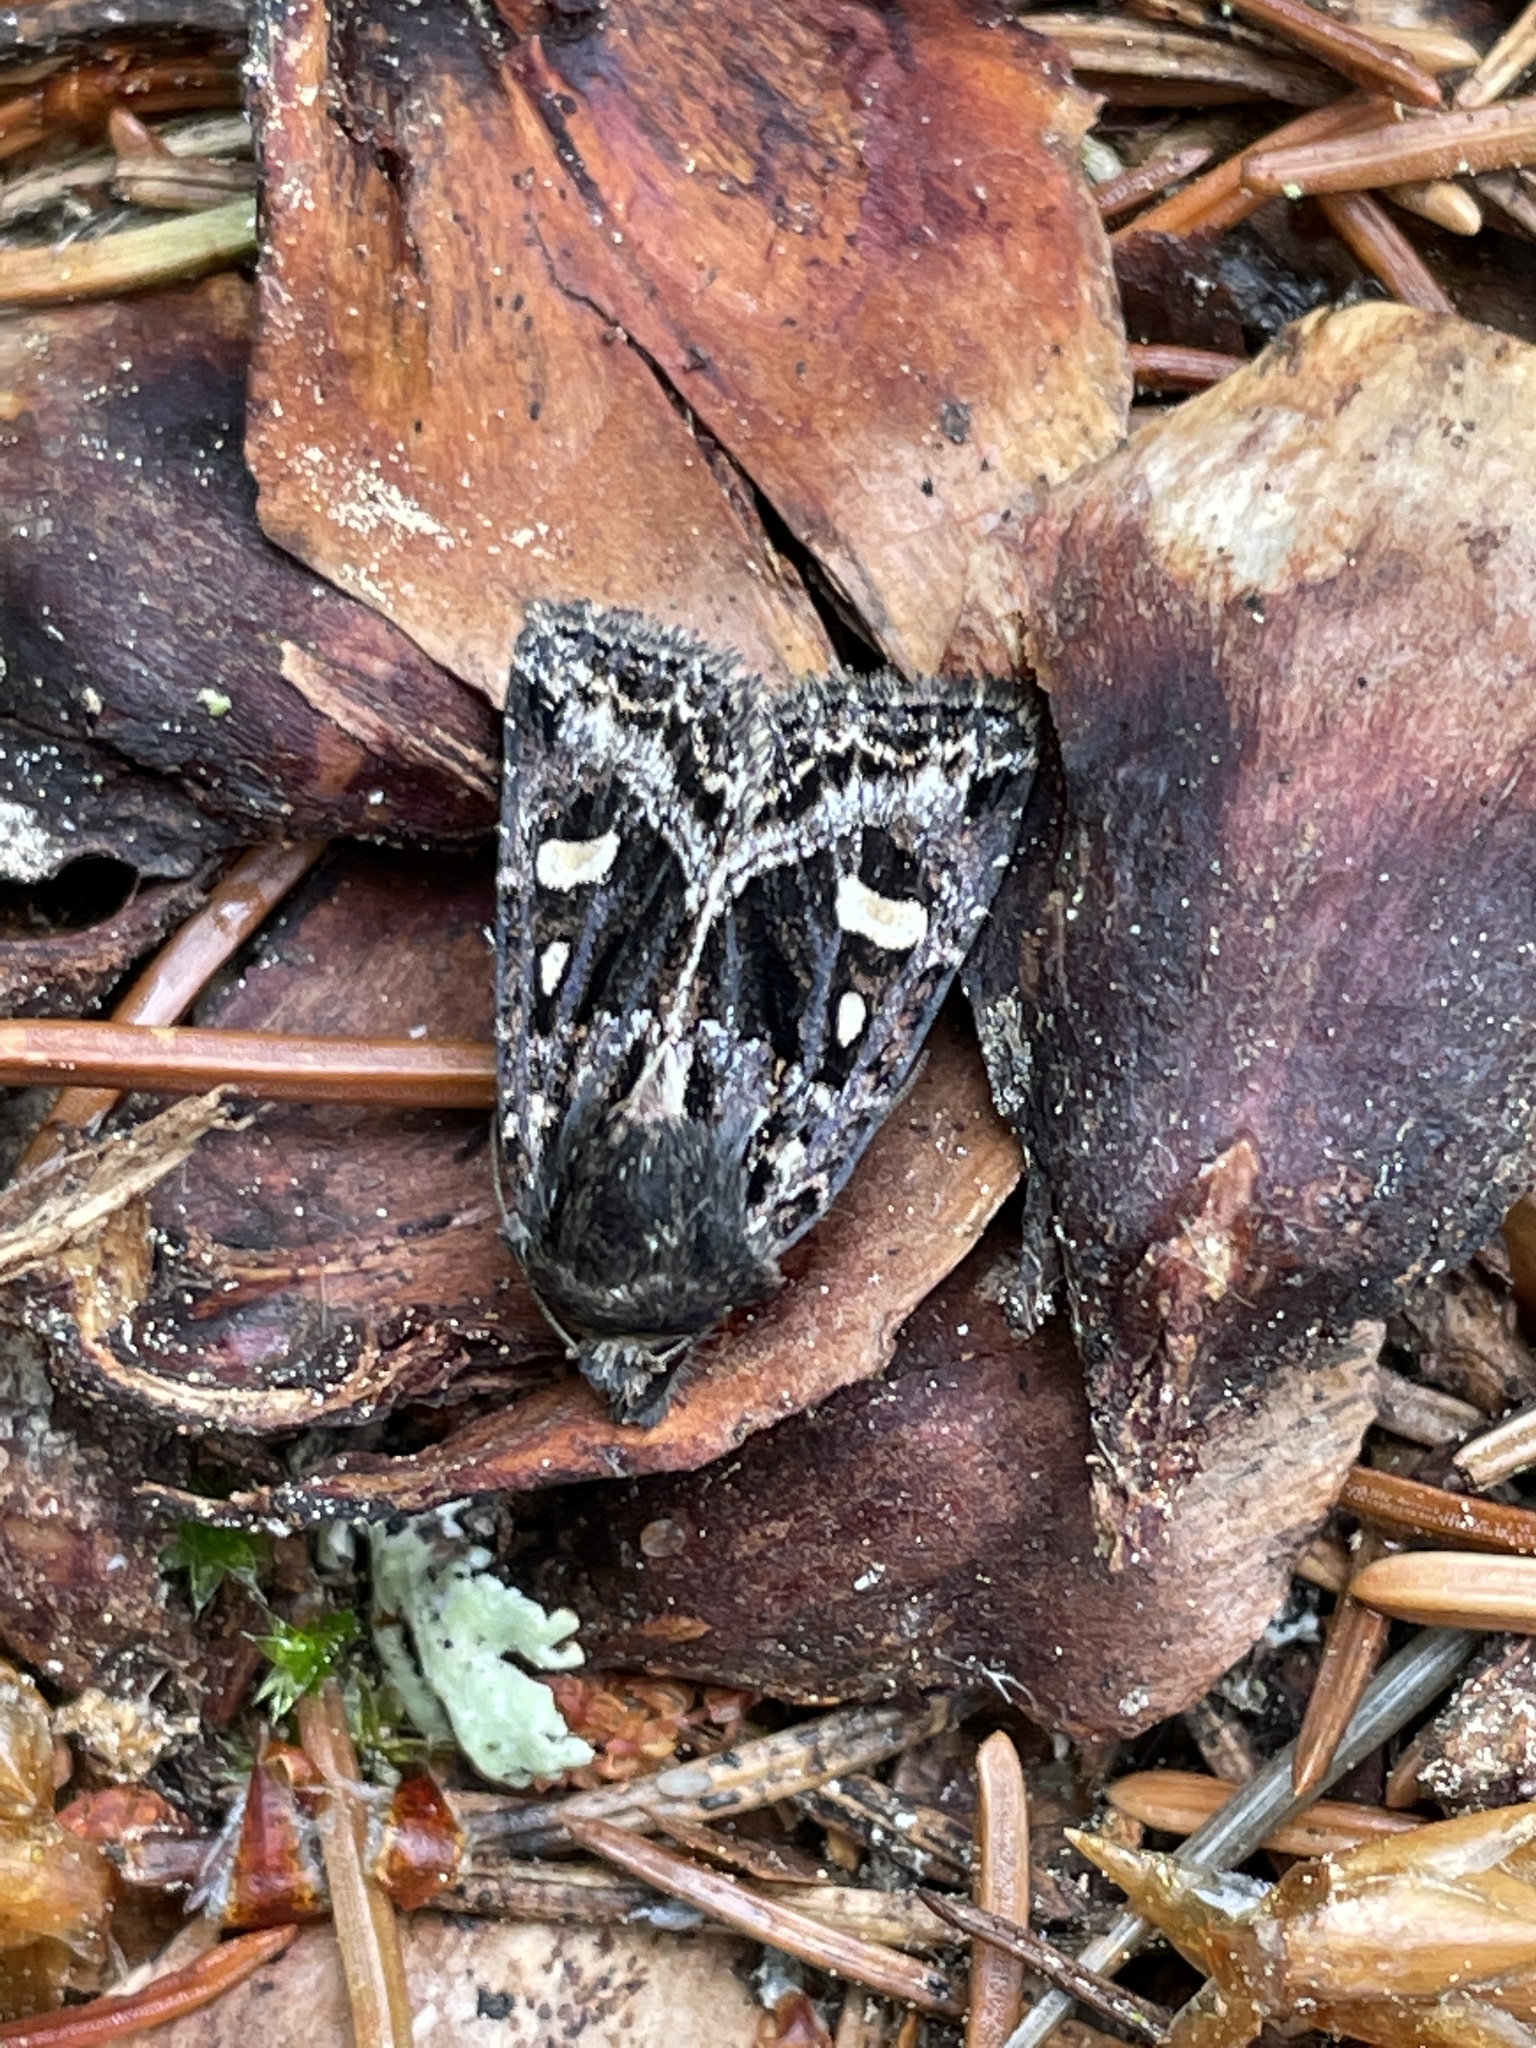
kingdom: Animalia
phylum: Arthropoda
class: Insecta
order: Lepidoptera
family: Noctuidae
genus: Celaena
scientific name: Celaena haworthii
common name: Haworth's minor
